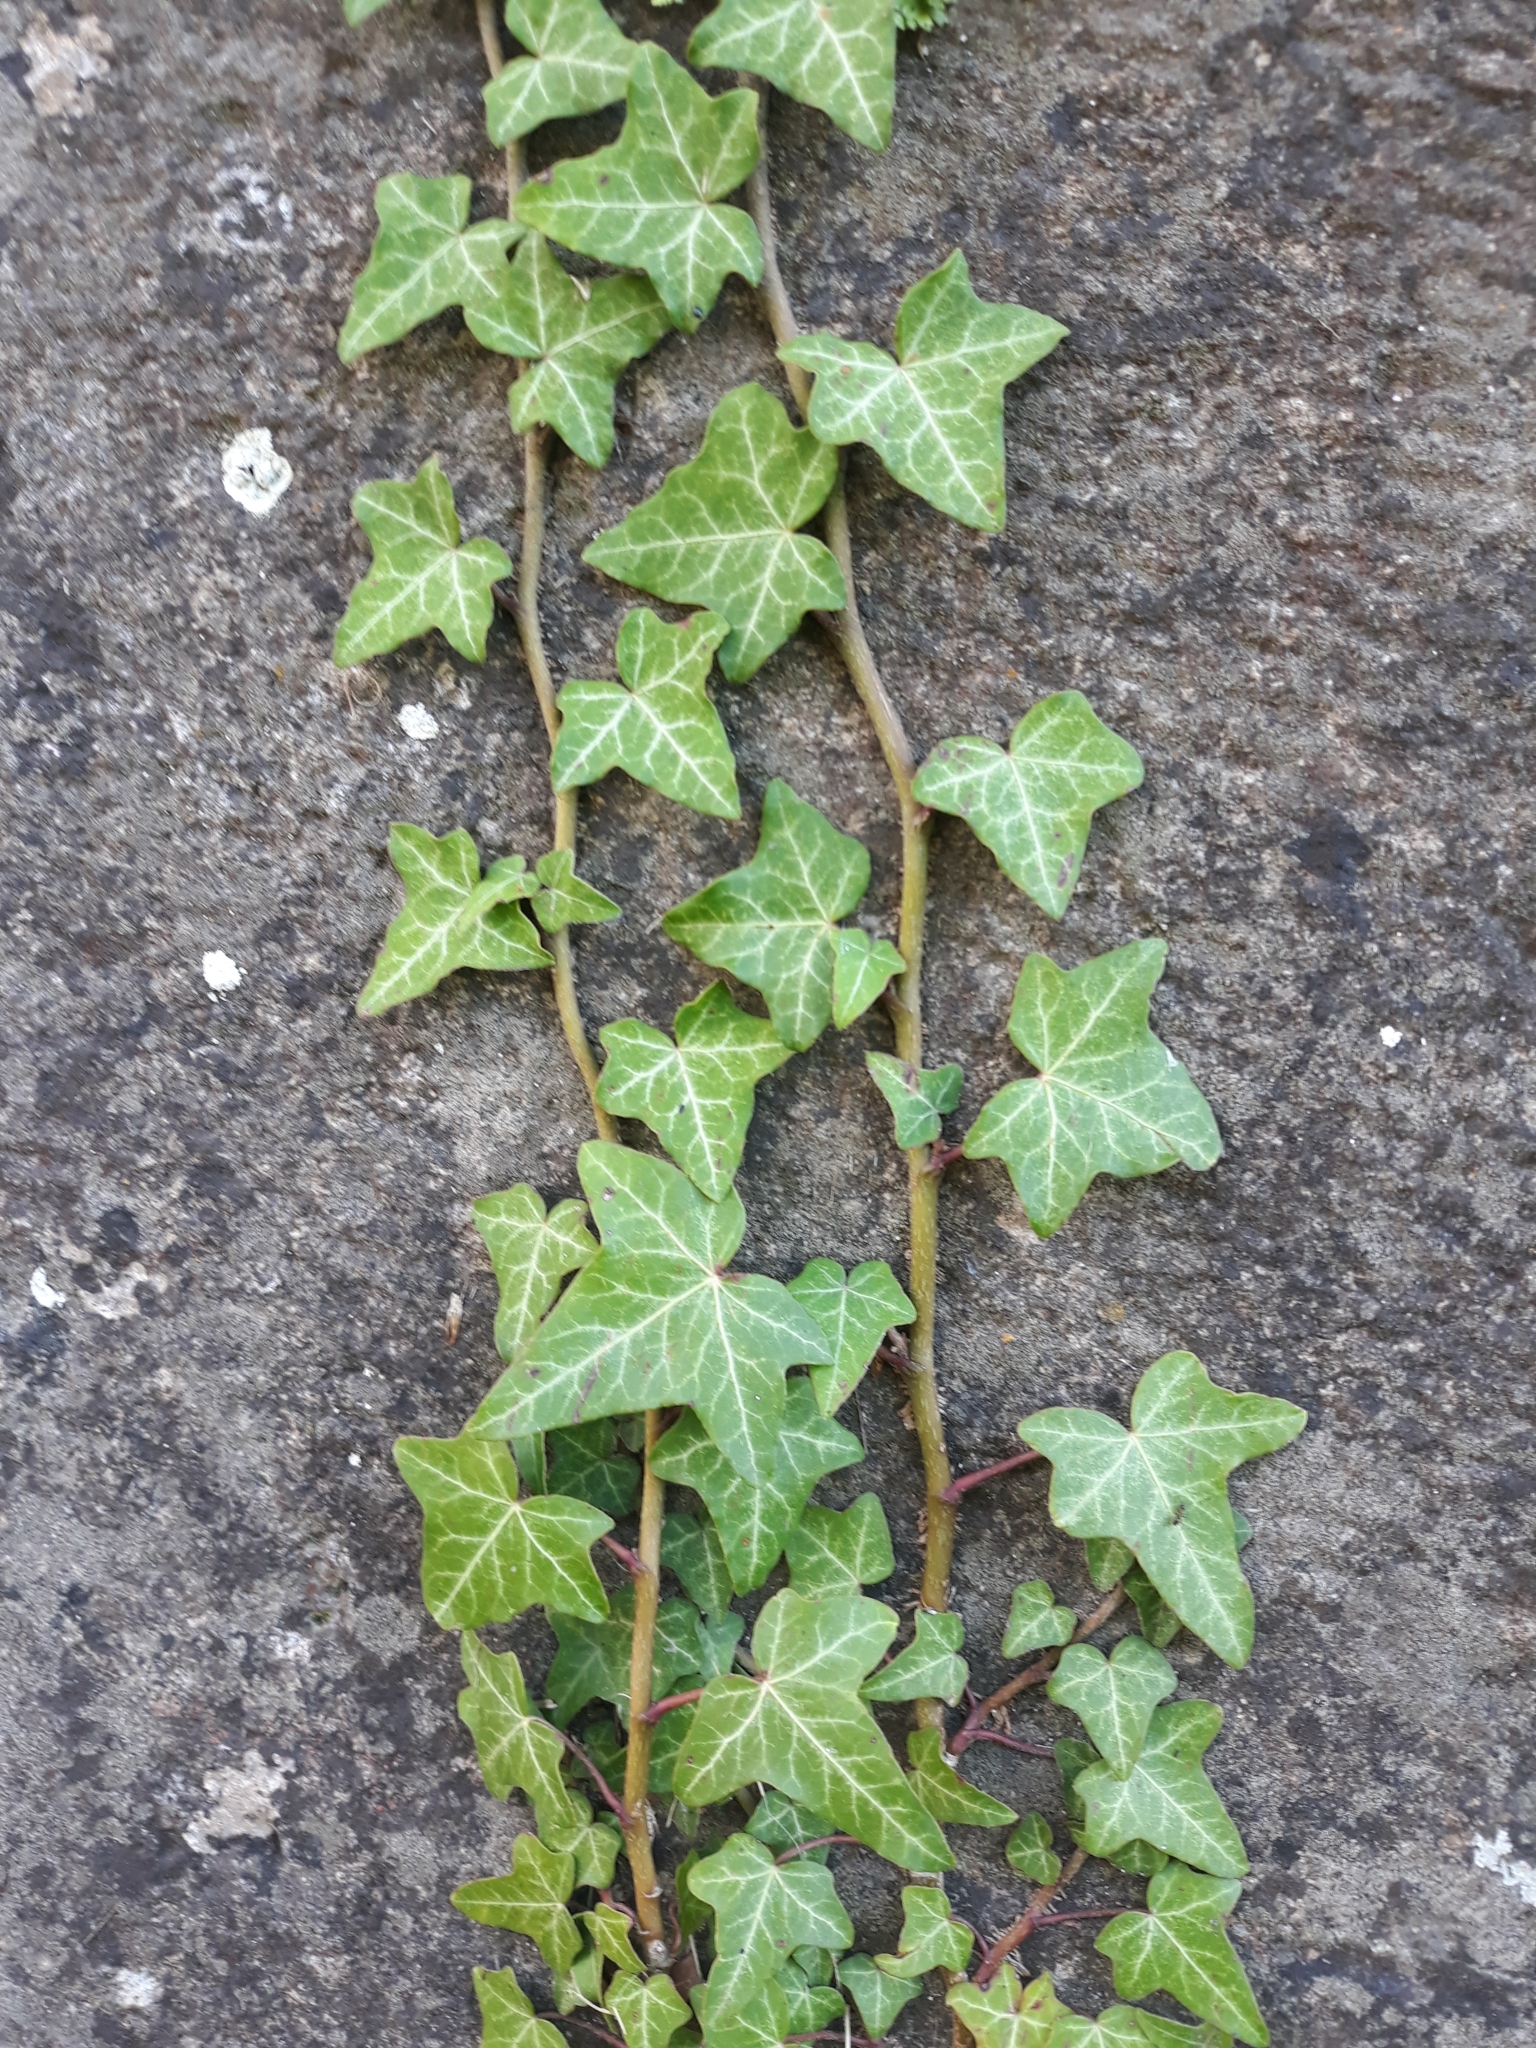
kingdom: Plantae
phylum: Tracheophyta
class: Magnoliopsida
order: Apiales
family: Araliaceae
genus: Hedera
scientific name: Hedera helix
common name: Ivy
